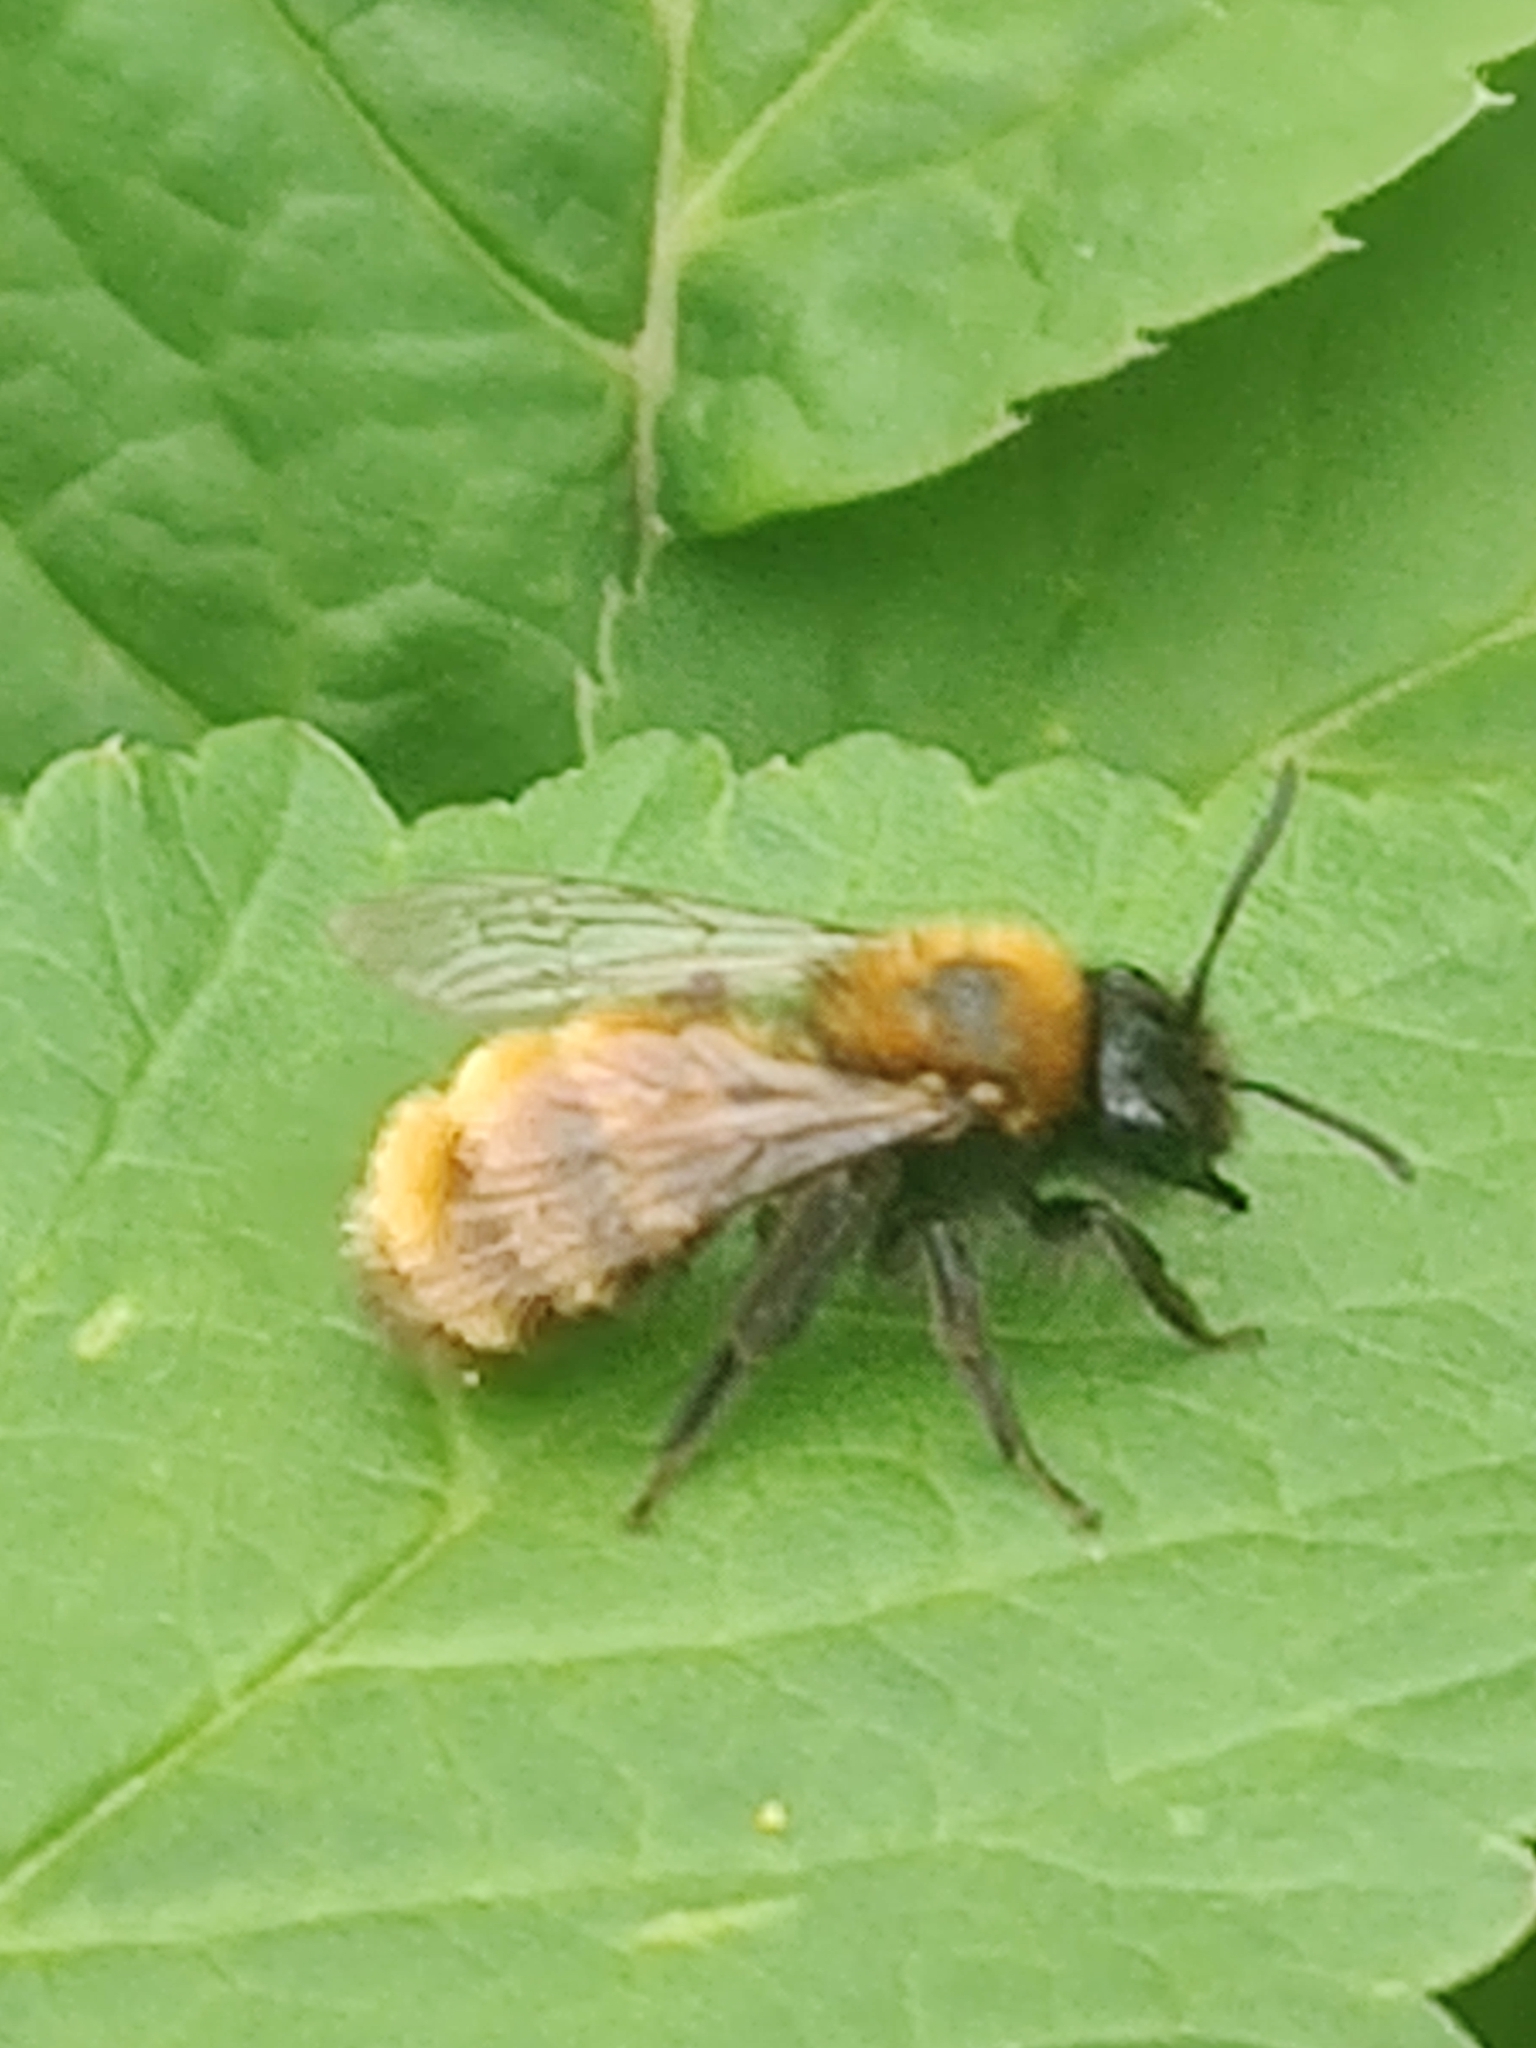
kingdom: Animalia
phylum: Arthropoda
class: Insecta
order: Hymenoptera
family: Andrenidae
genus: Andrena
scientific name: Andrena fulva
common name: Tawny mining bee
